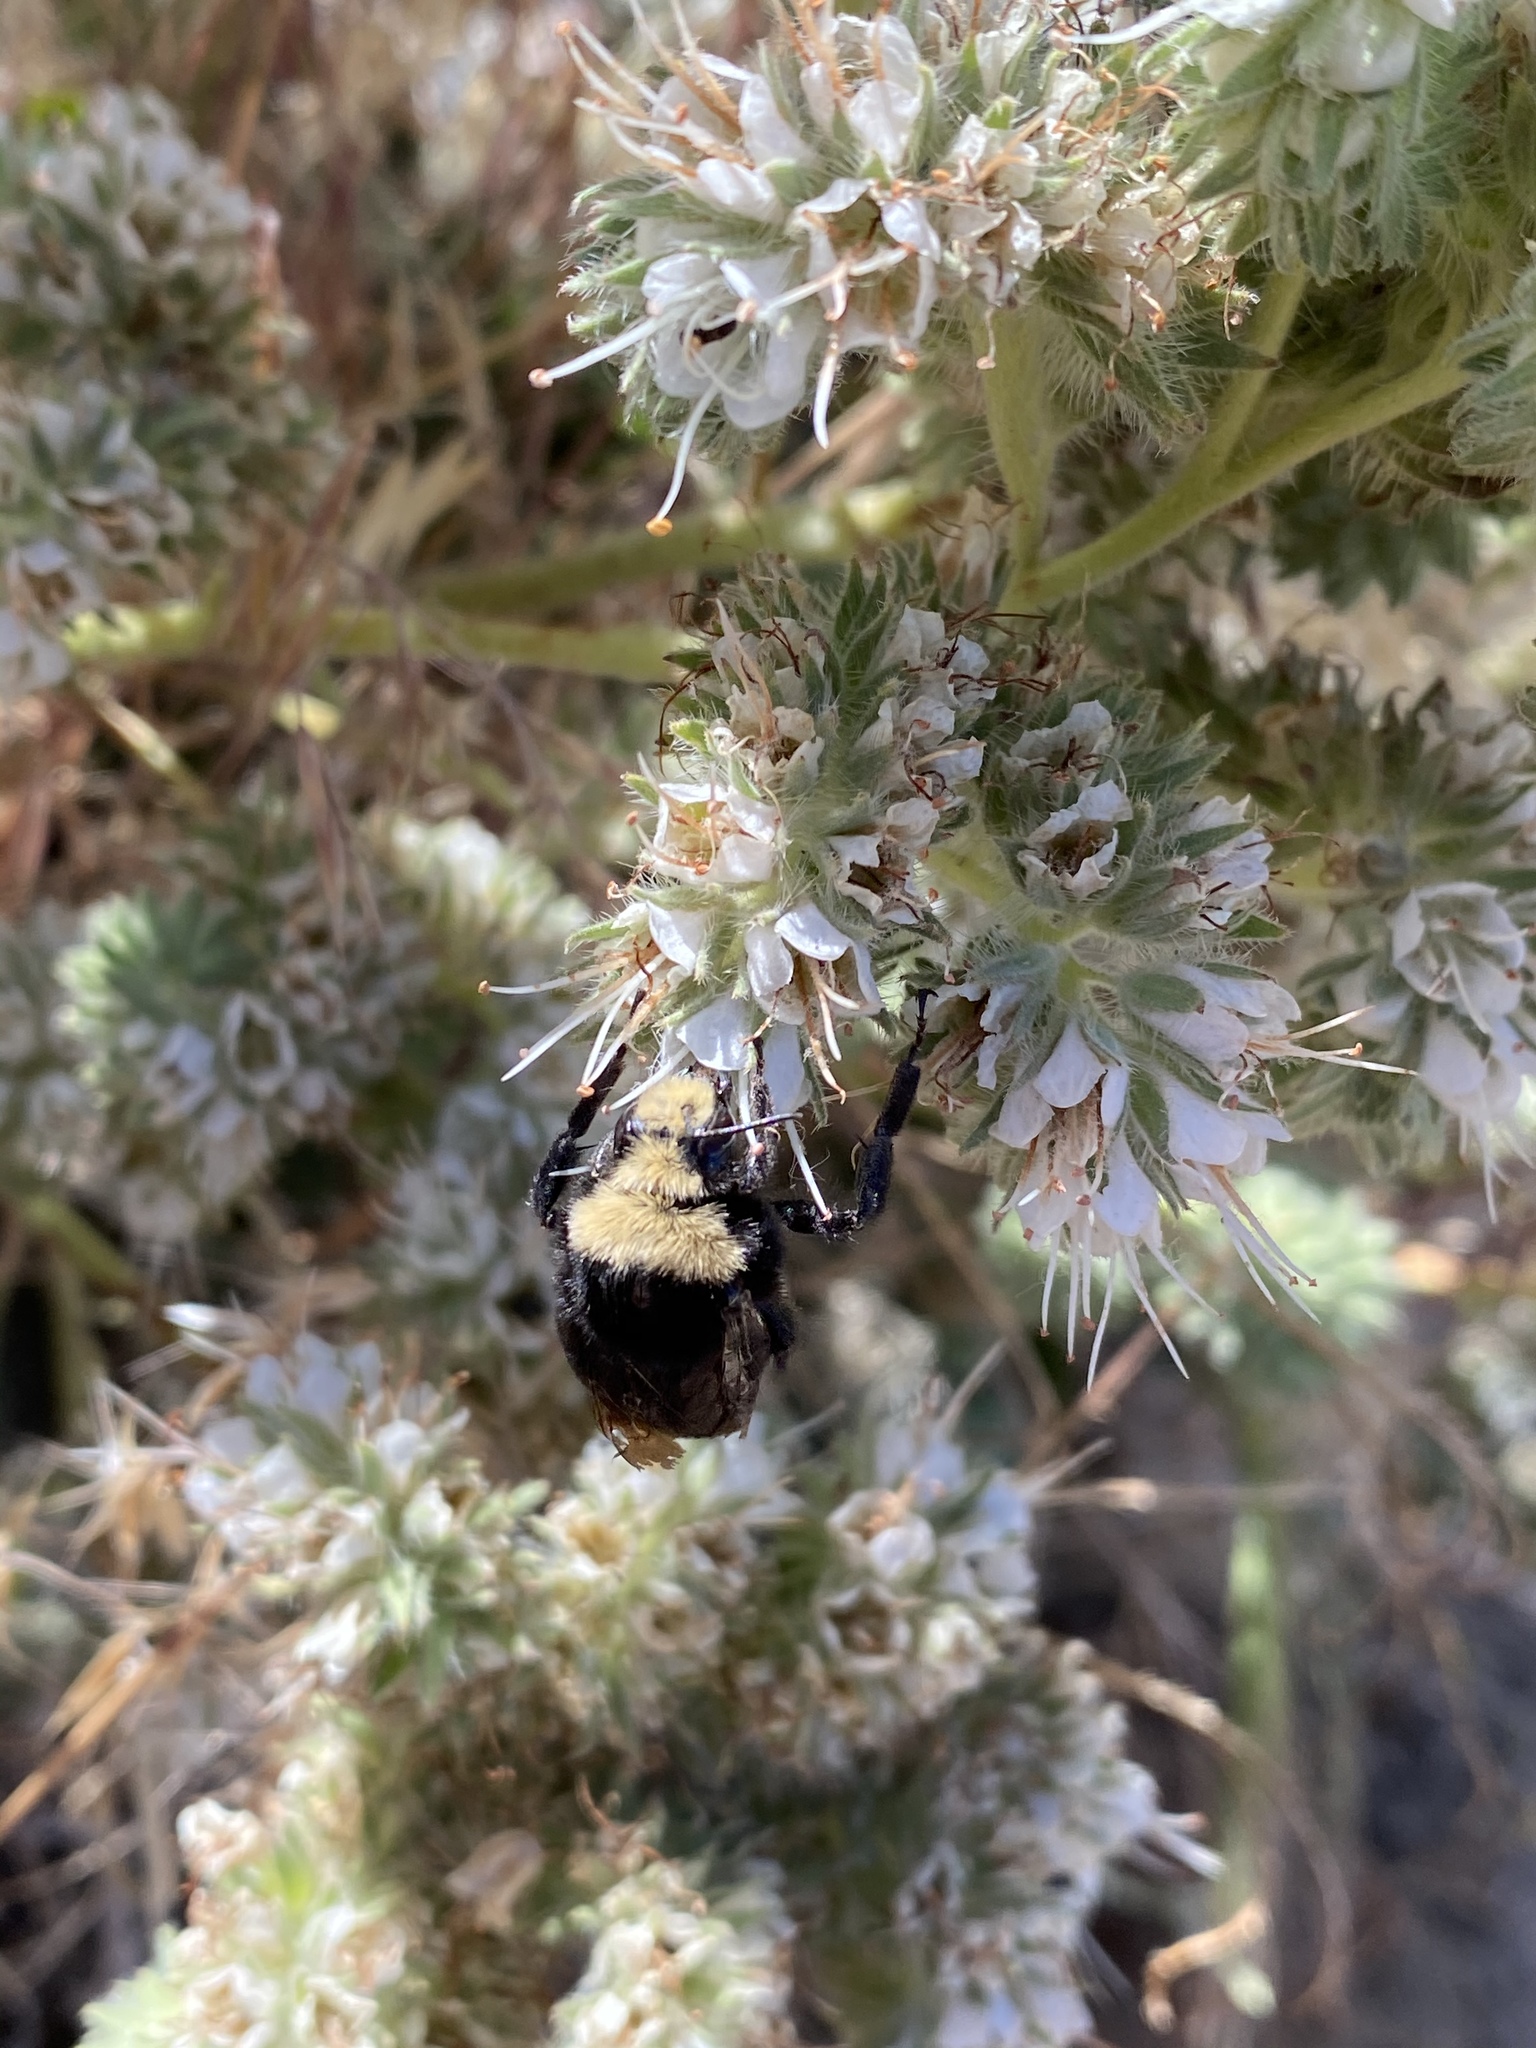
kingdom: Animalia
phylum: Arthropoda
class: Insecta
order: Hymenoptera
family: Apidae
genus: Bombus
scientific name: Bombus vosnesenskii
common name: Vosnesensky bumble bee
